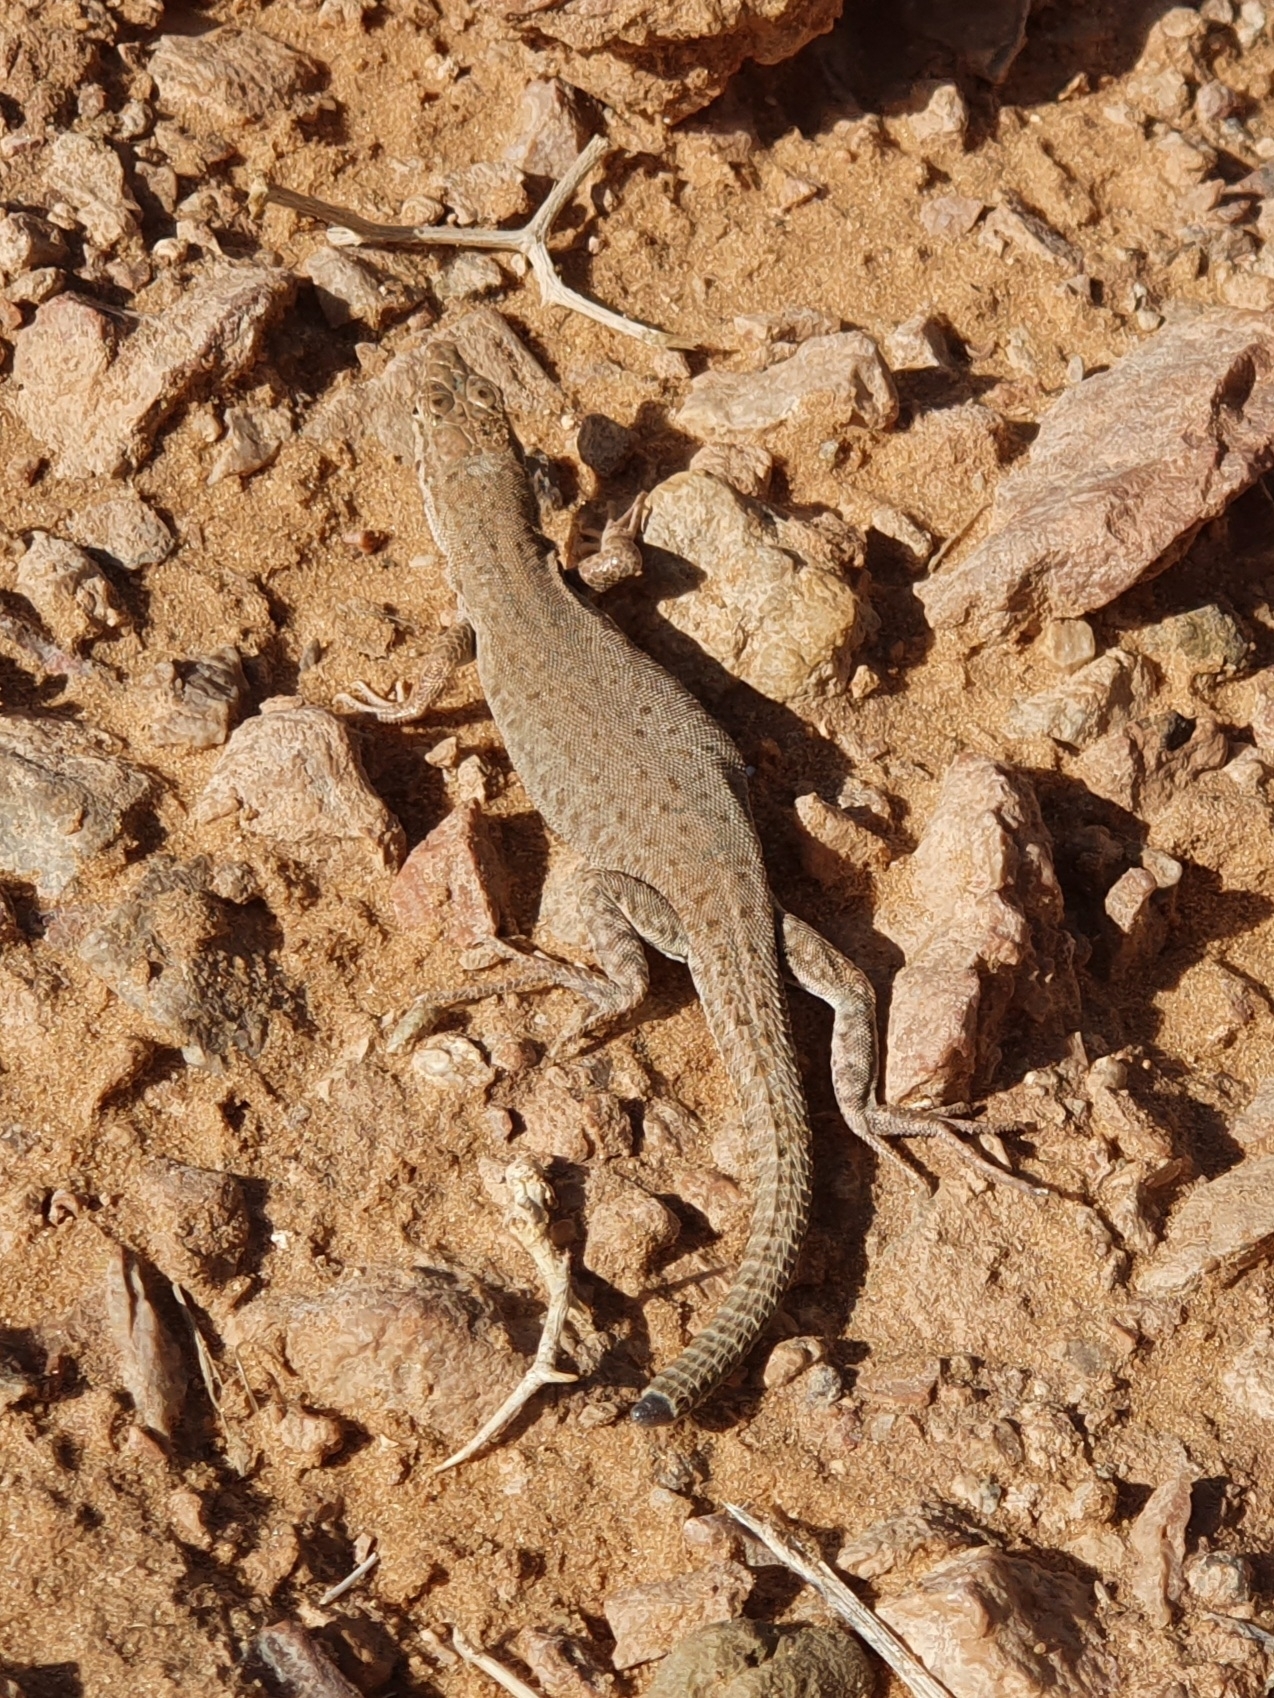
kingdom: Animalia
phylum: Chordata
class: Squamata
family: Lacertidae
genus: Mesalina
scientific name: Mesalina guttulata
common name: Desert lacerta
